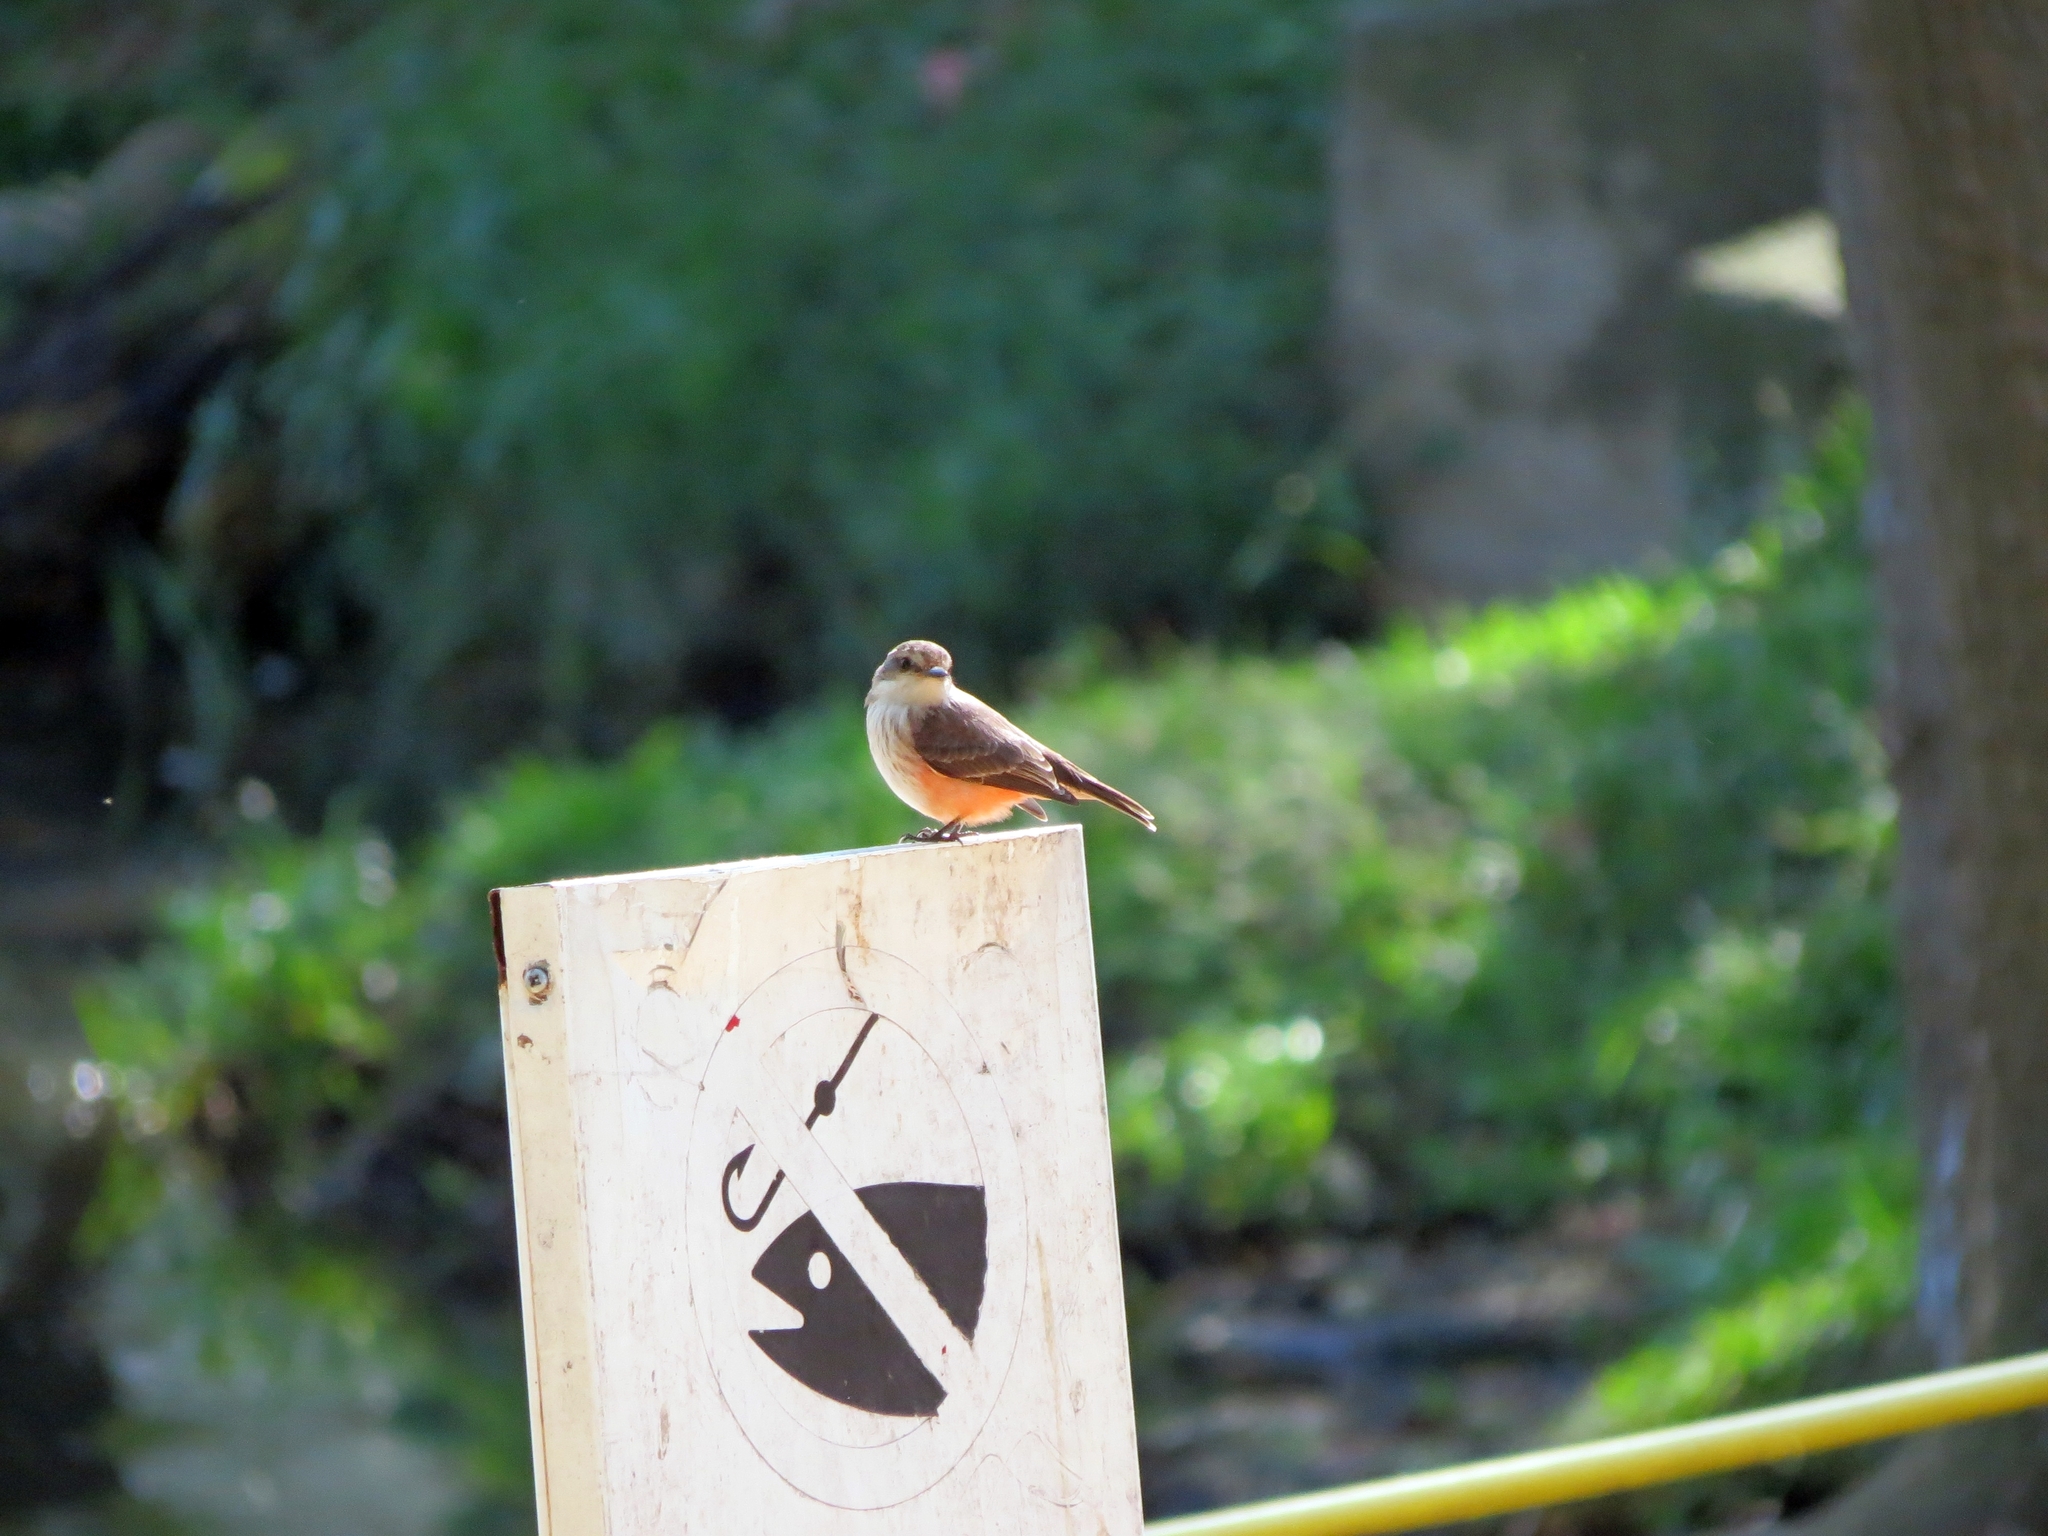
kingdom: Animalia
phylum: Chordata
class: Aves
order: Passeriformes
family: Tyrannidae
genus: Pyrocephalus
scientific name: Pyrocephalus rubinus
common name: Vermilion flycatcher
